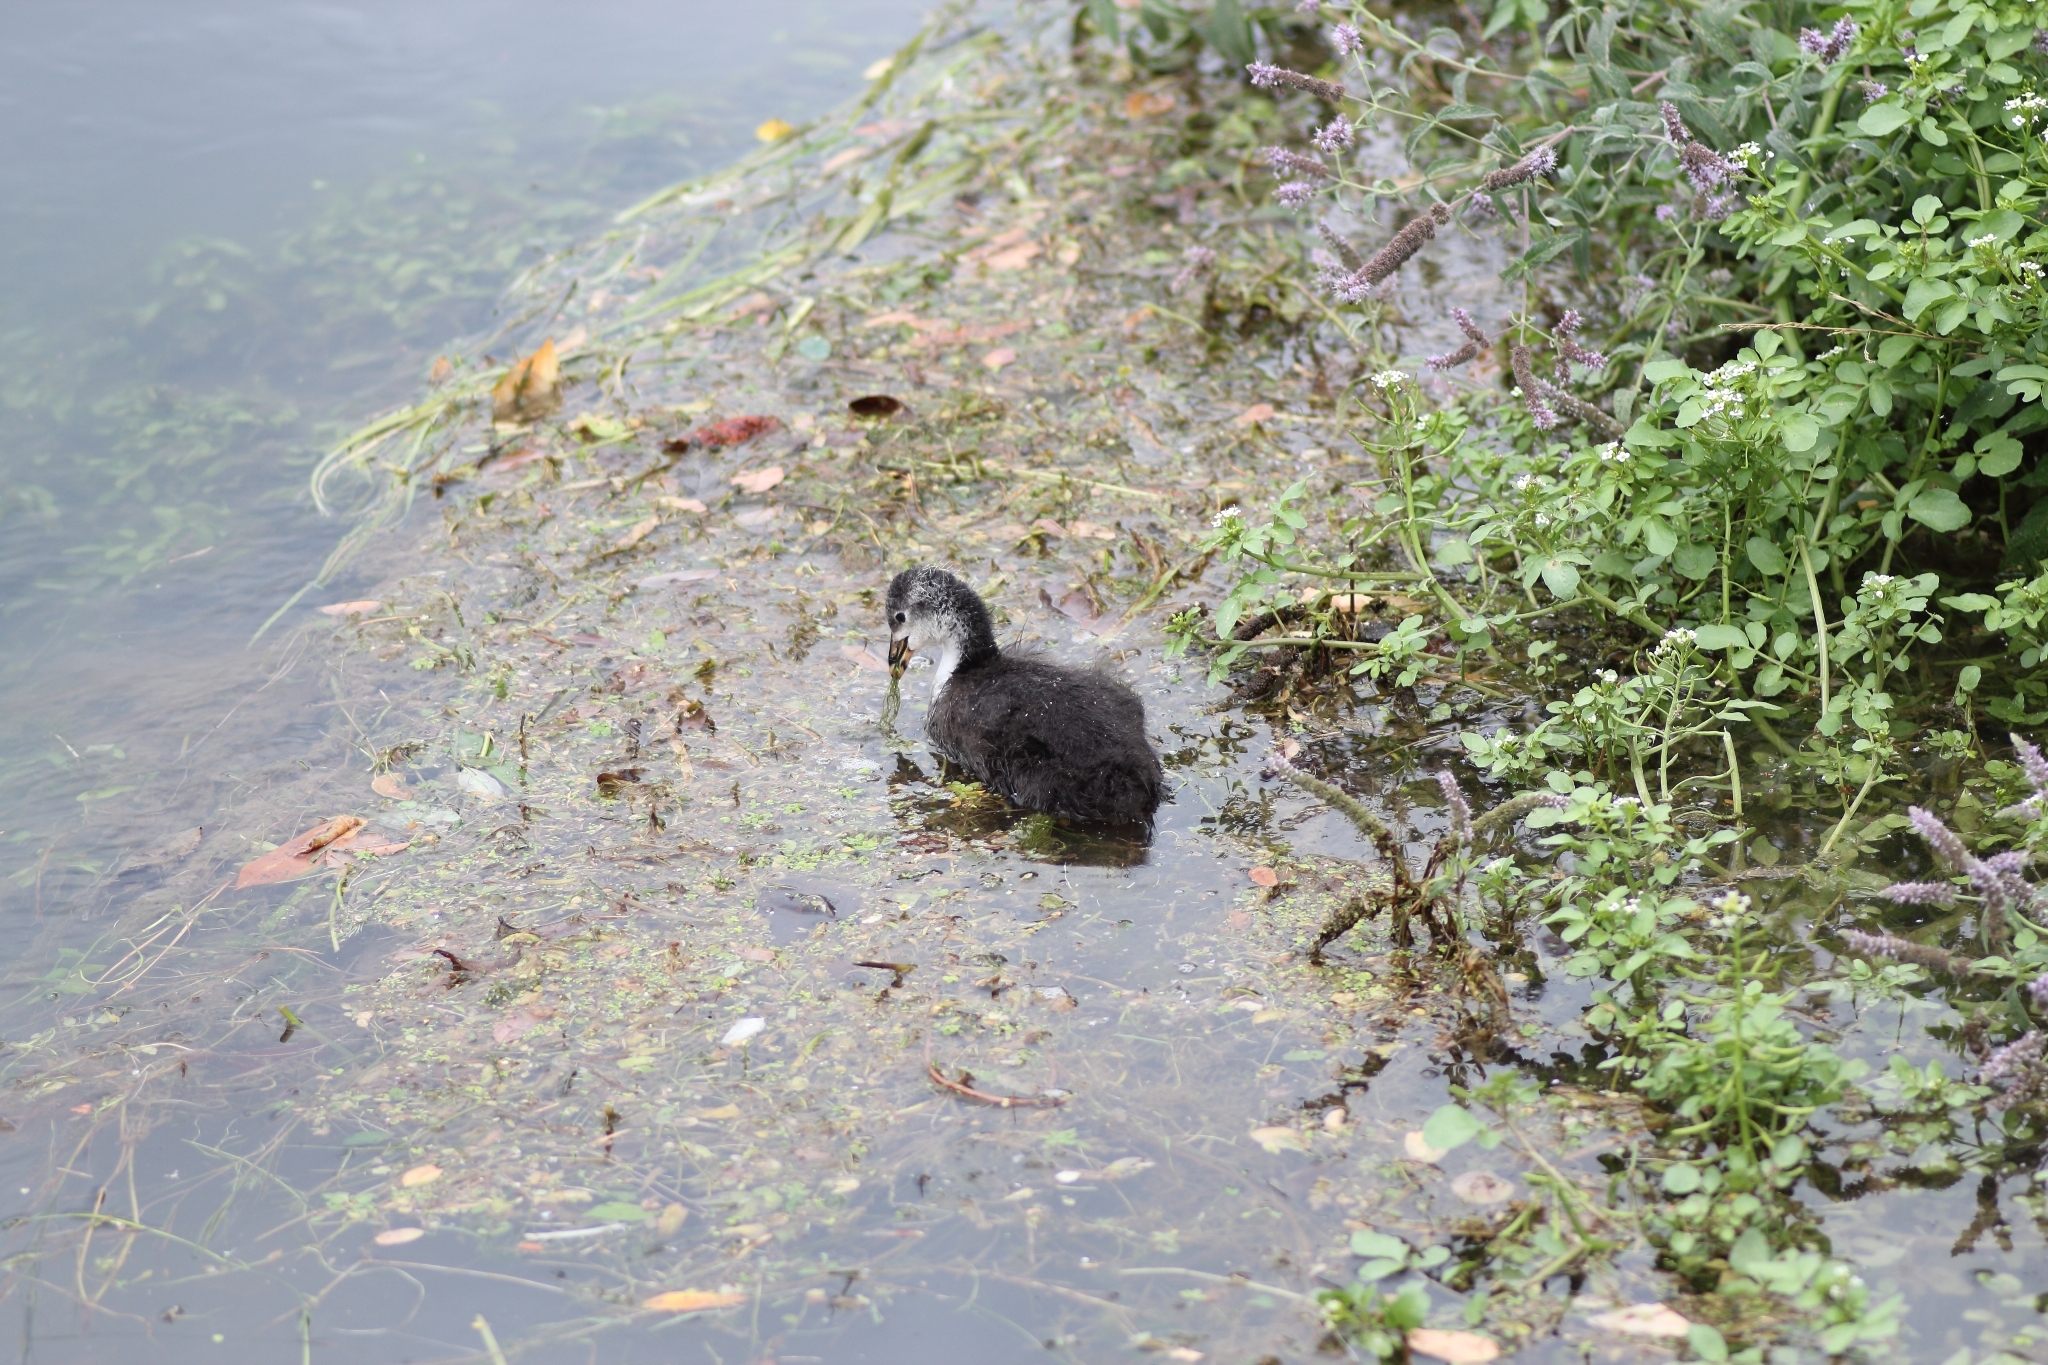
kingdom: Animalia
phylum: Chordata
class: Aves
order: Gruiformes
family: Rallidae
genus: Fulica
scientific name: Fulica atra
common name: Eurasian coot
